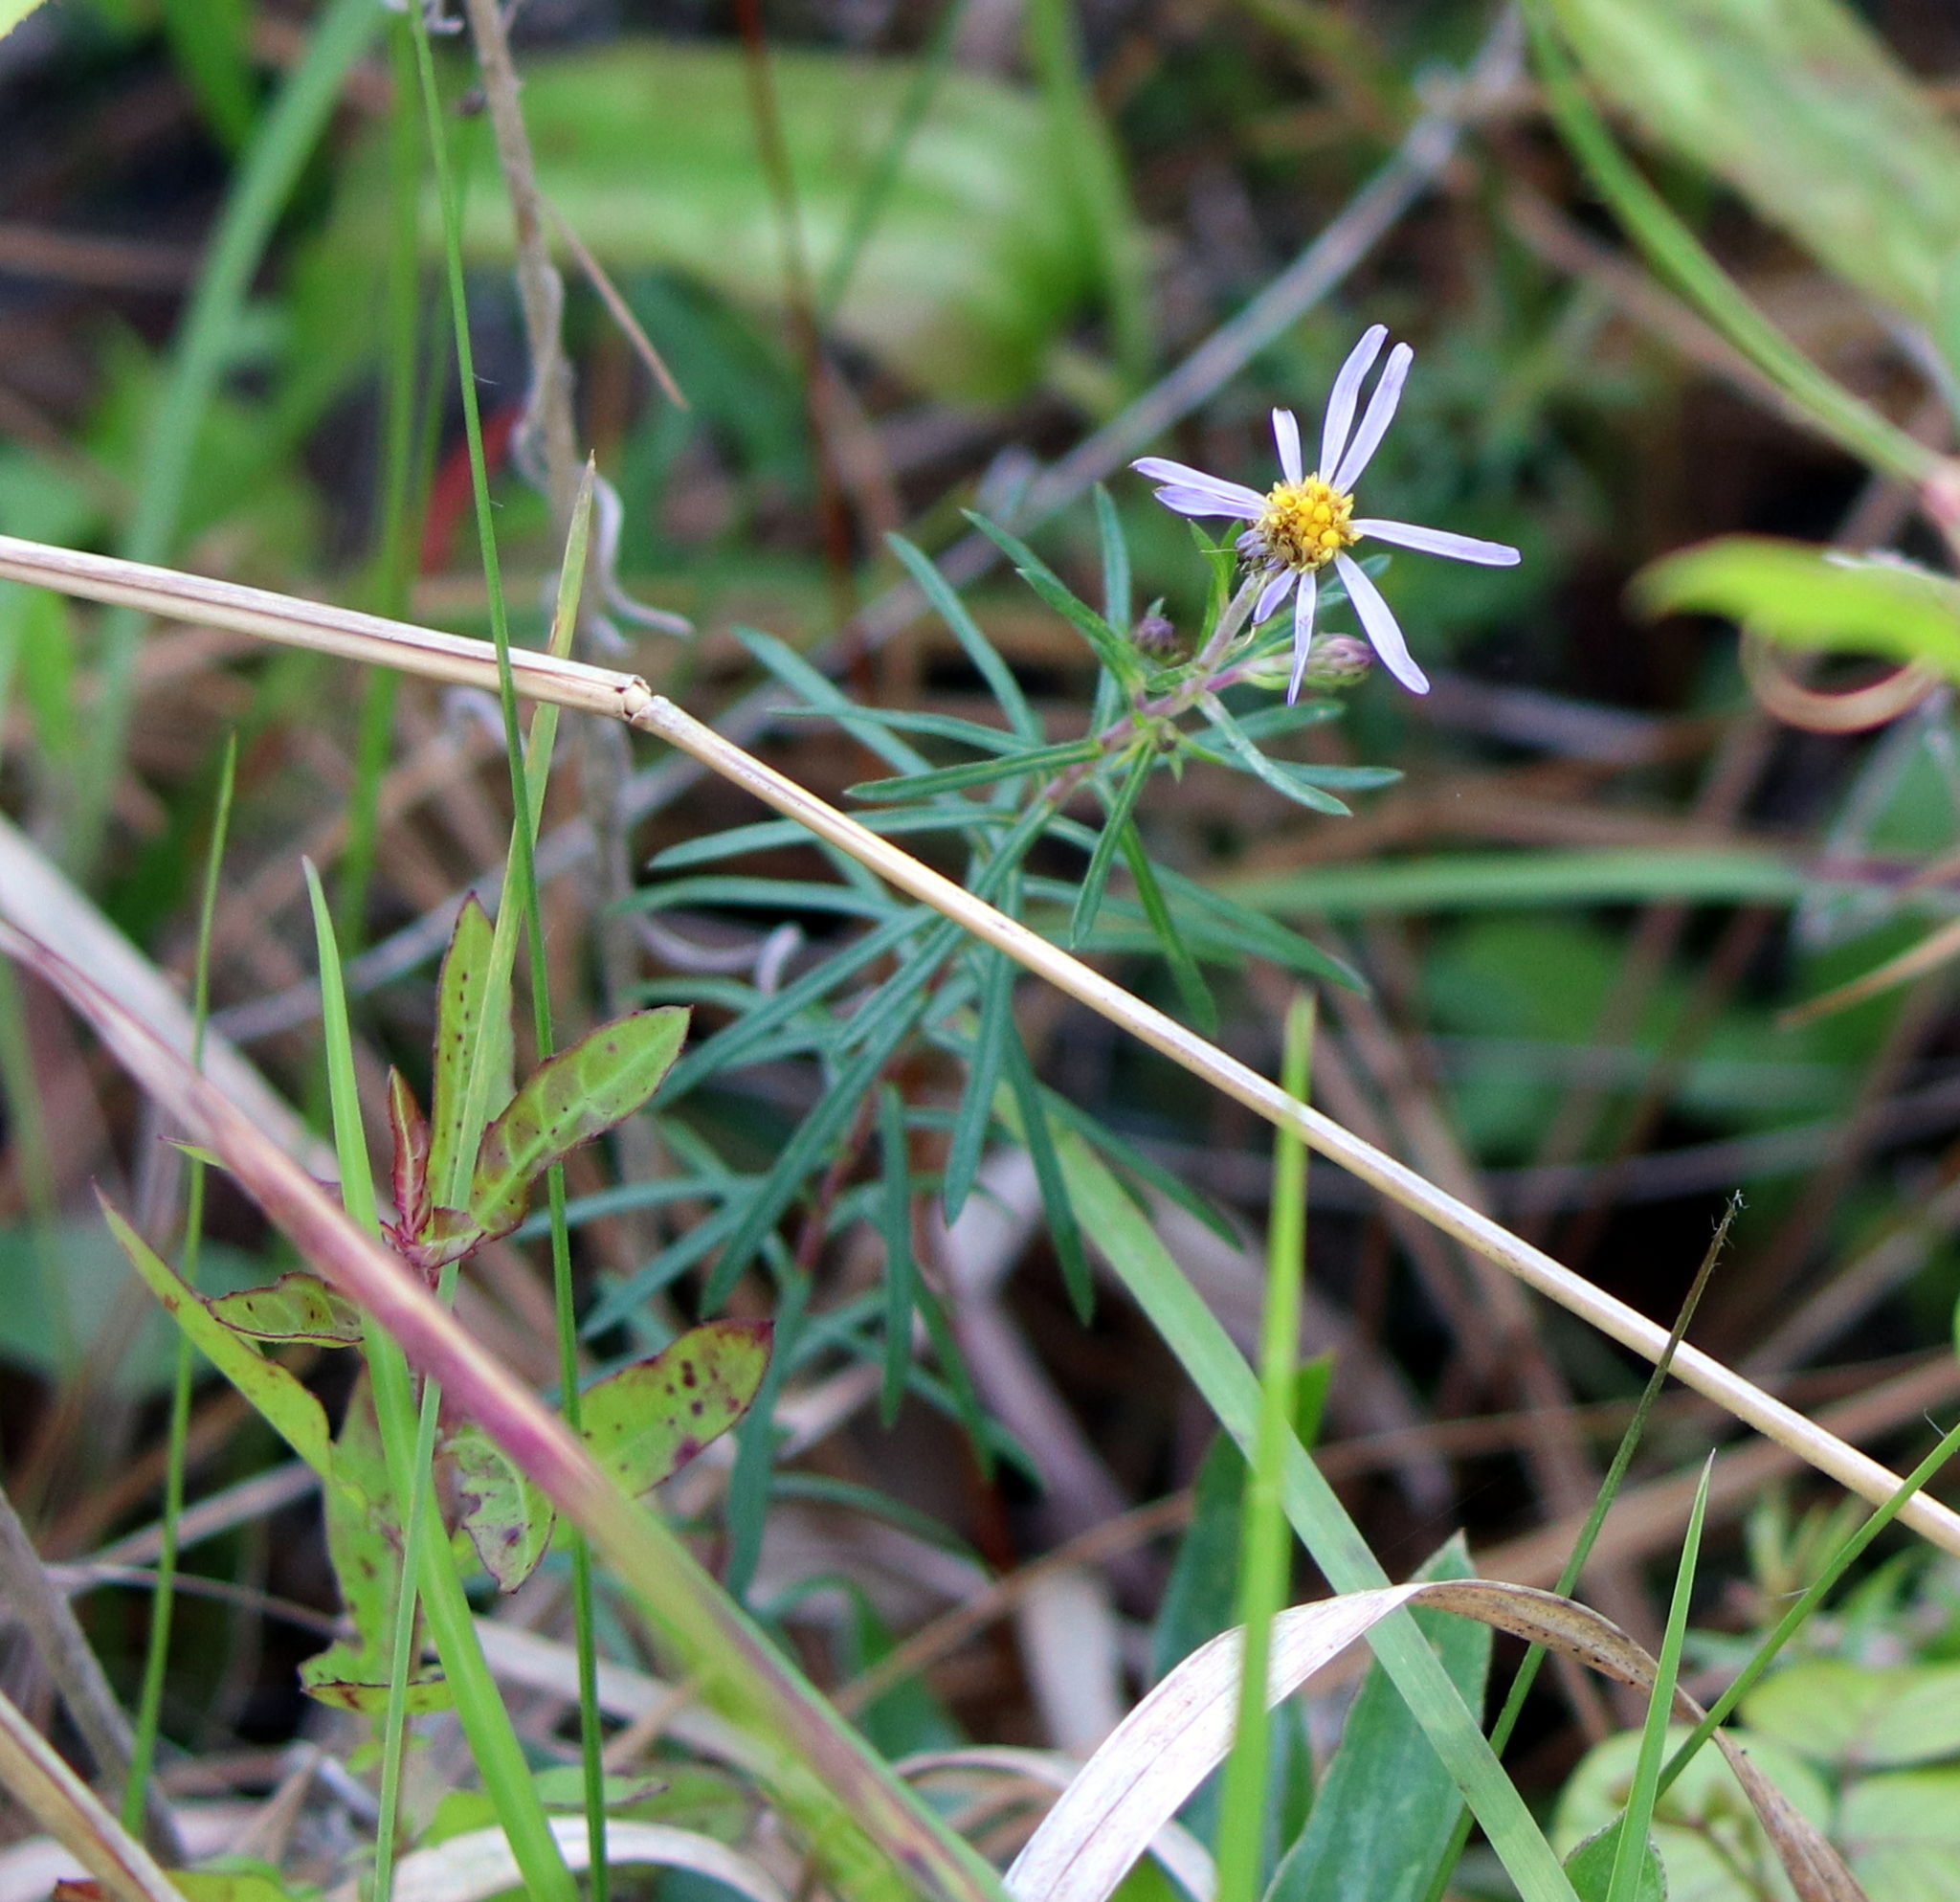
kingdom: Plantae
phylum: Tracheophyta
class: Magnoliopsida
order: Asterales
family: Asteraceae
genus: Ionactis
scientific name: Ionactis repens
